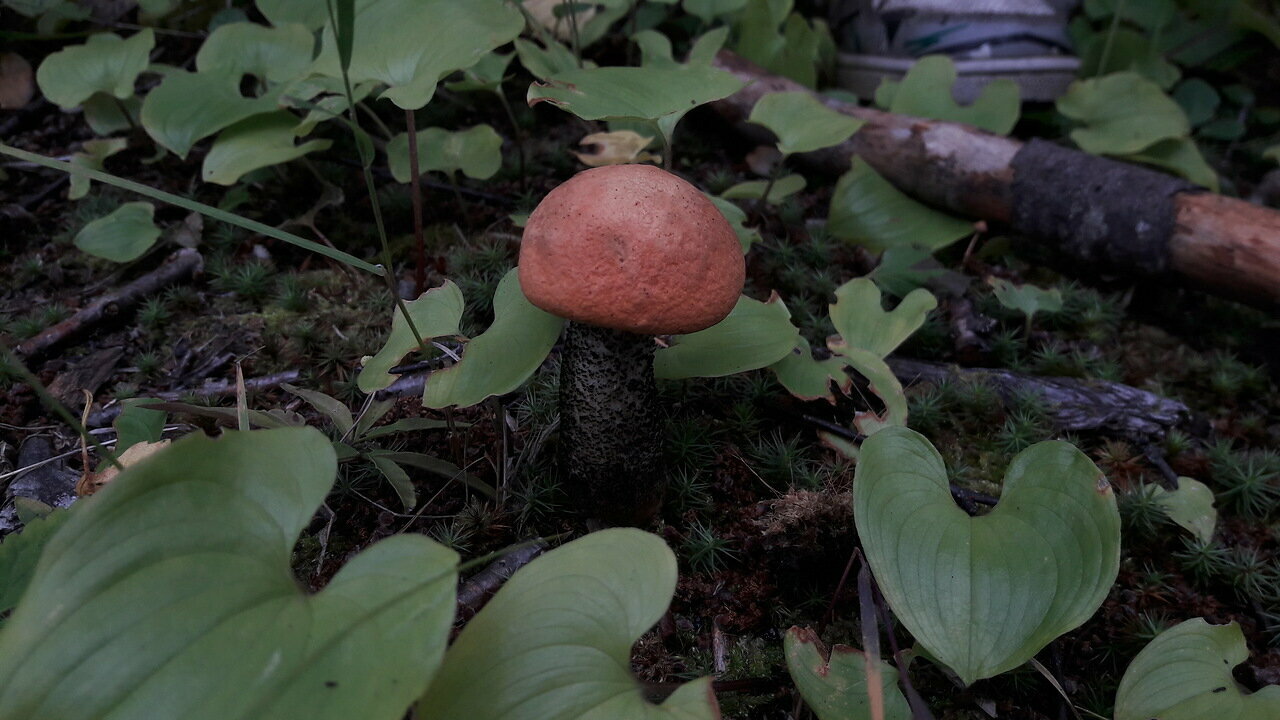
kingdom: Fungi
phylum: Basidiomycota
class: Agaricomycetes
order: Boletales
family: Boletaceae
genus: Leccinum
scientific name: Leccinum aurantiacum
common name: Orange bolete
